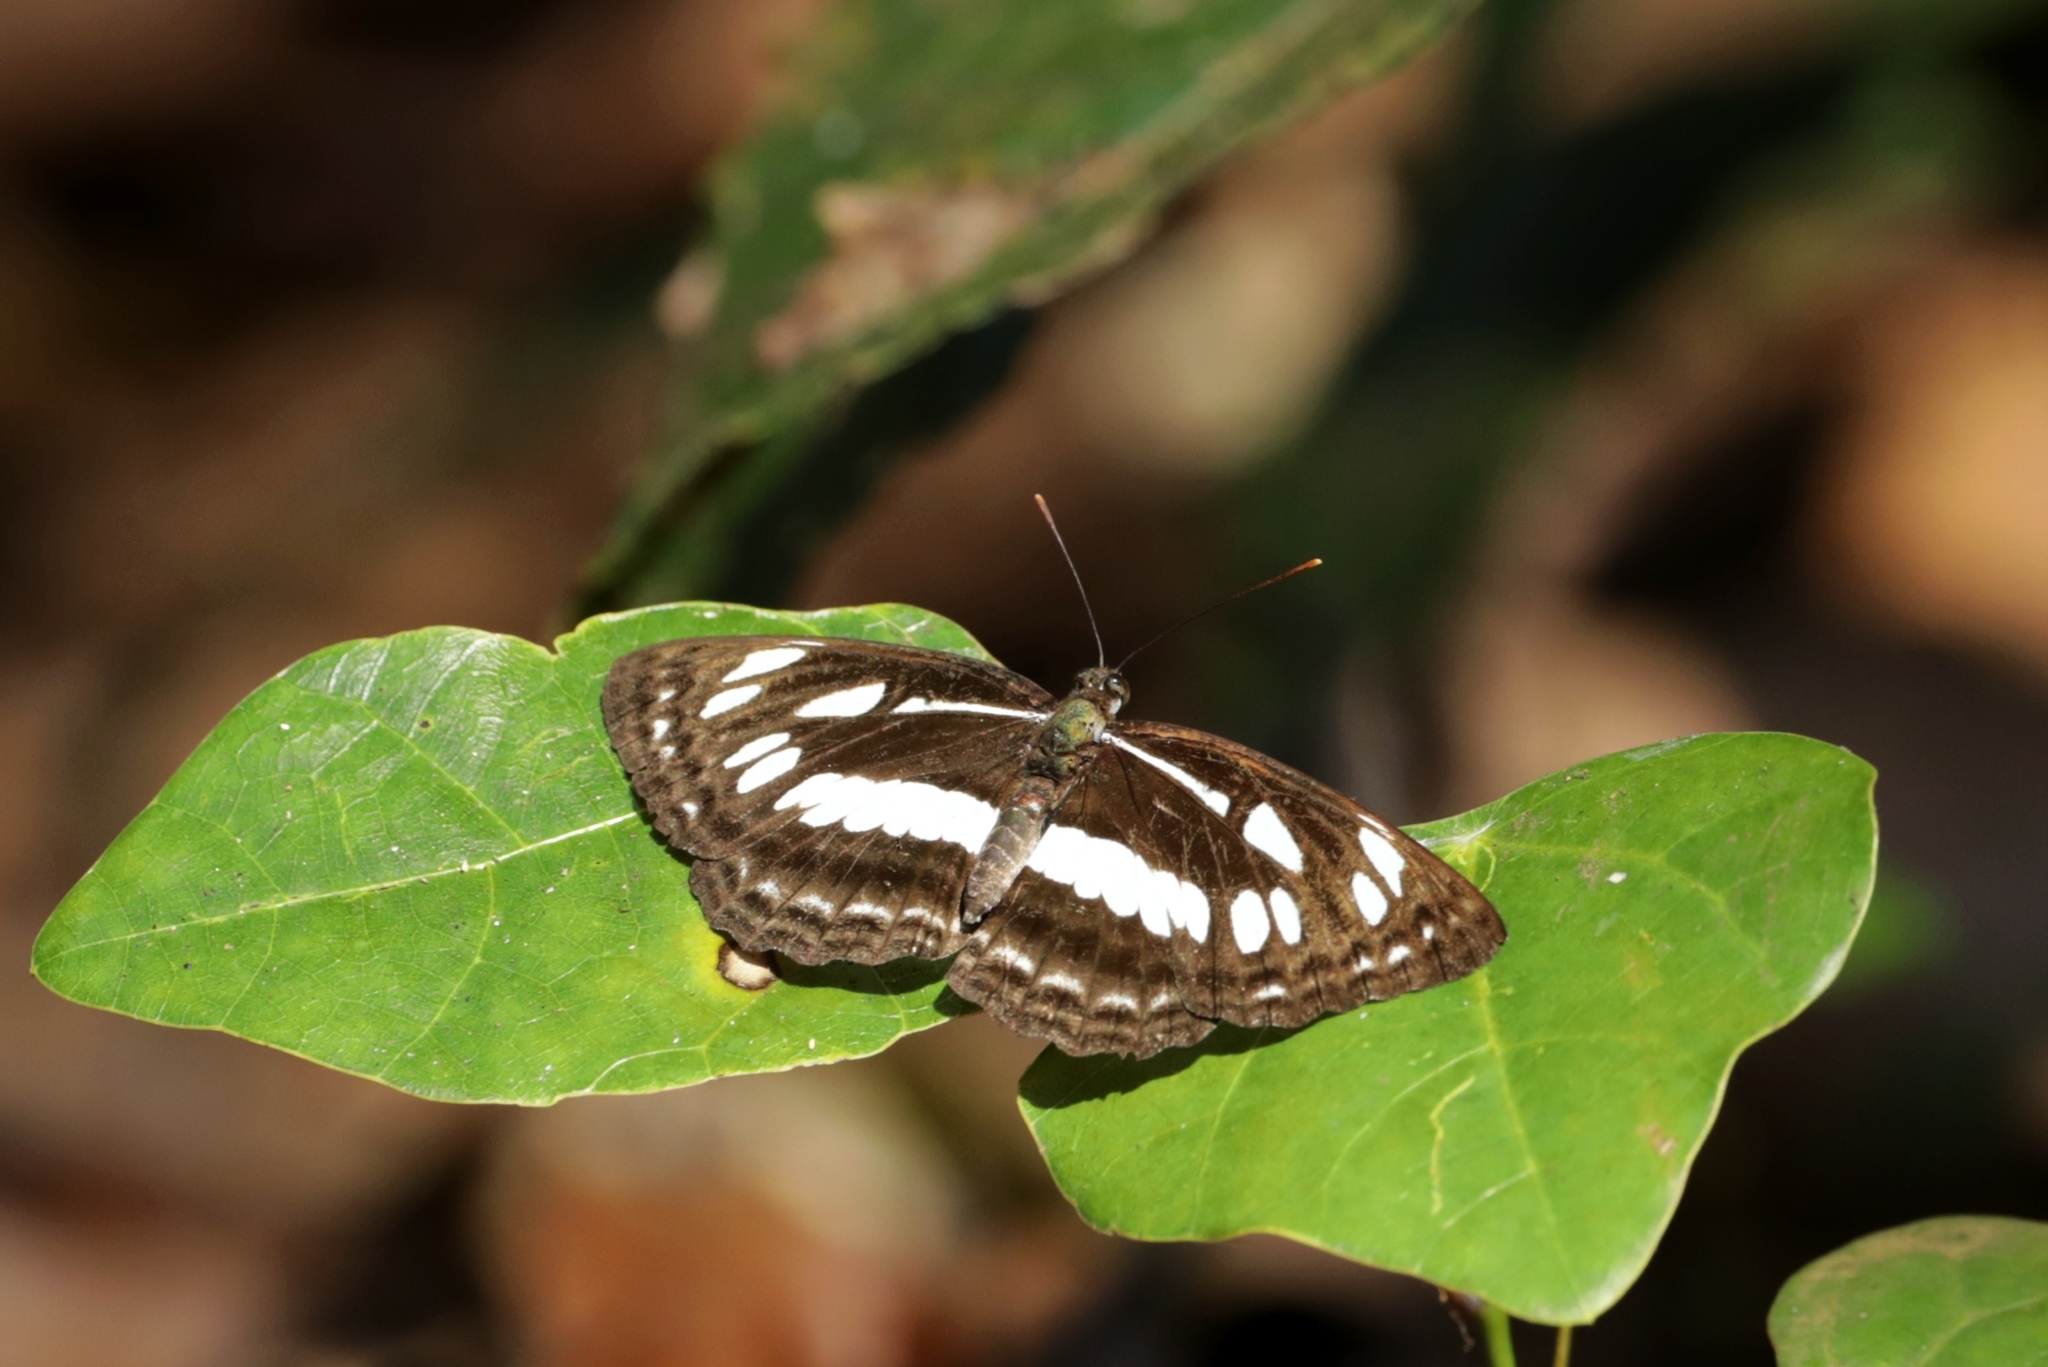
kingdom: Animalia
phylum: Arthropoda
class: Insecta
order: Lepidoptera
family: Nymphalidae
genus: Neptis
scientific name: Neptis jumbah
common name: Chestnut-streaked sailer
